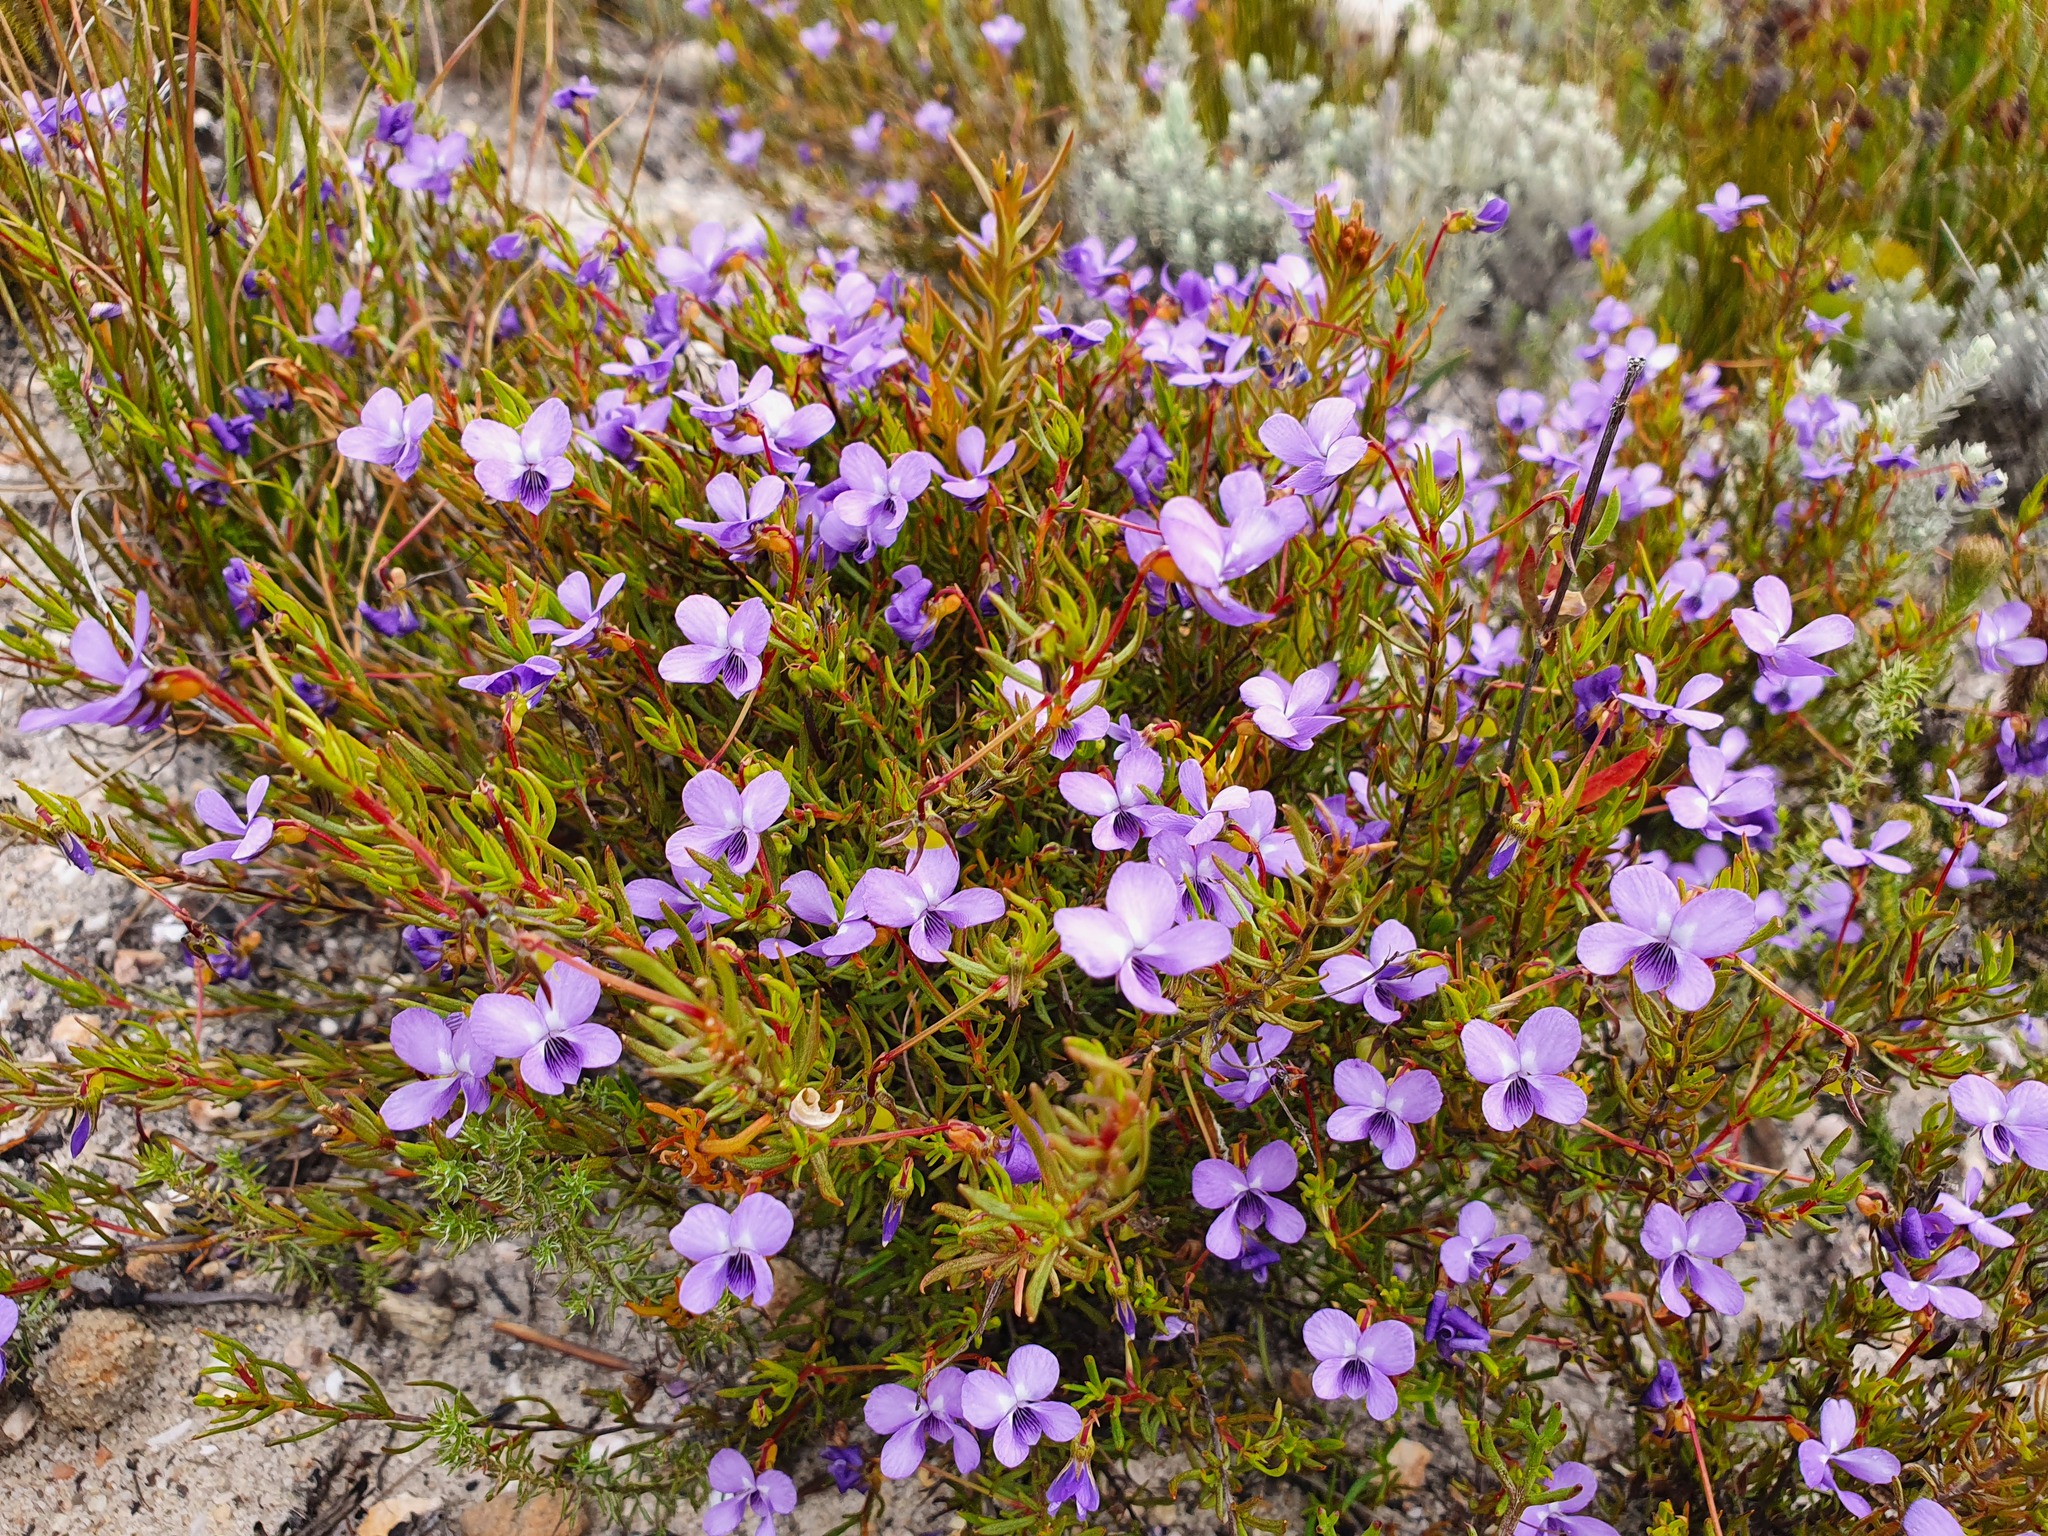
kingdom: Plantae
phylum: Tracheophyta
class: Magnoliopsida
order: Malpighiales
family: Violaceae
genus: Viola
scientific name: Viola decumbens
